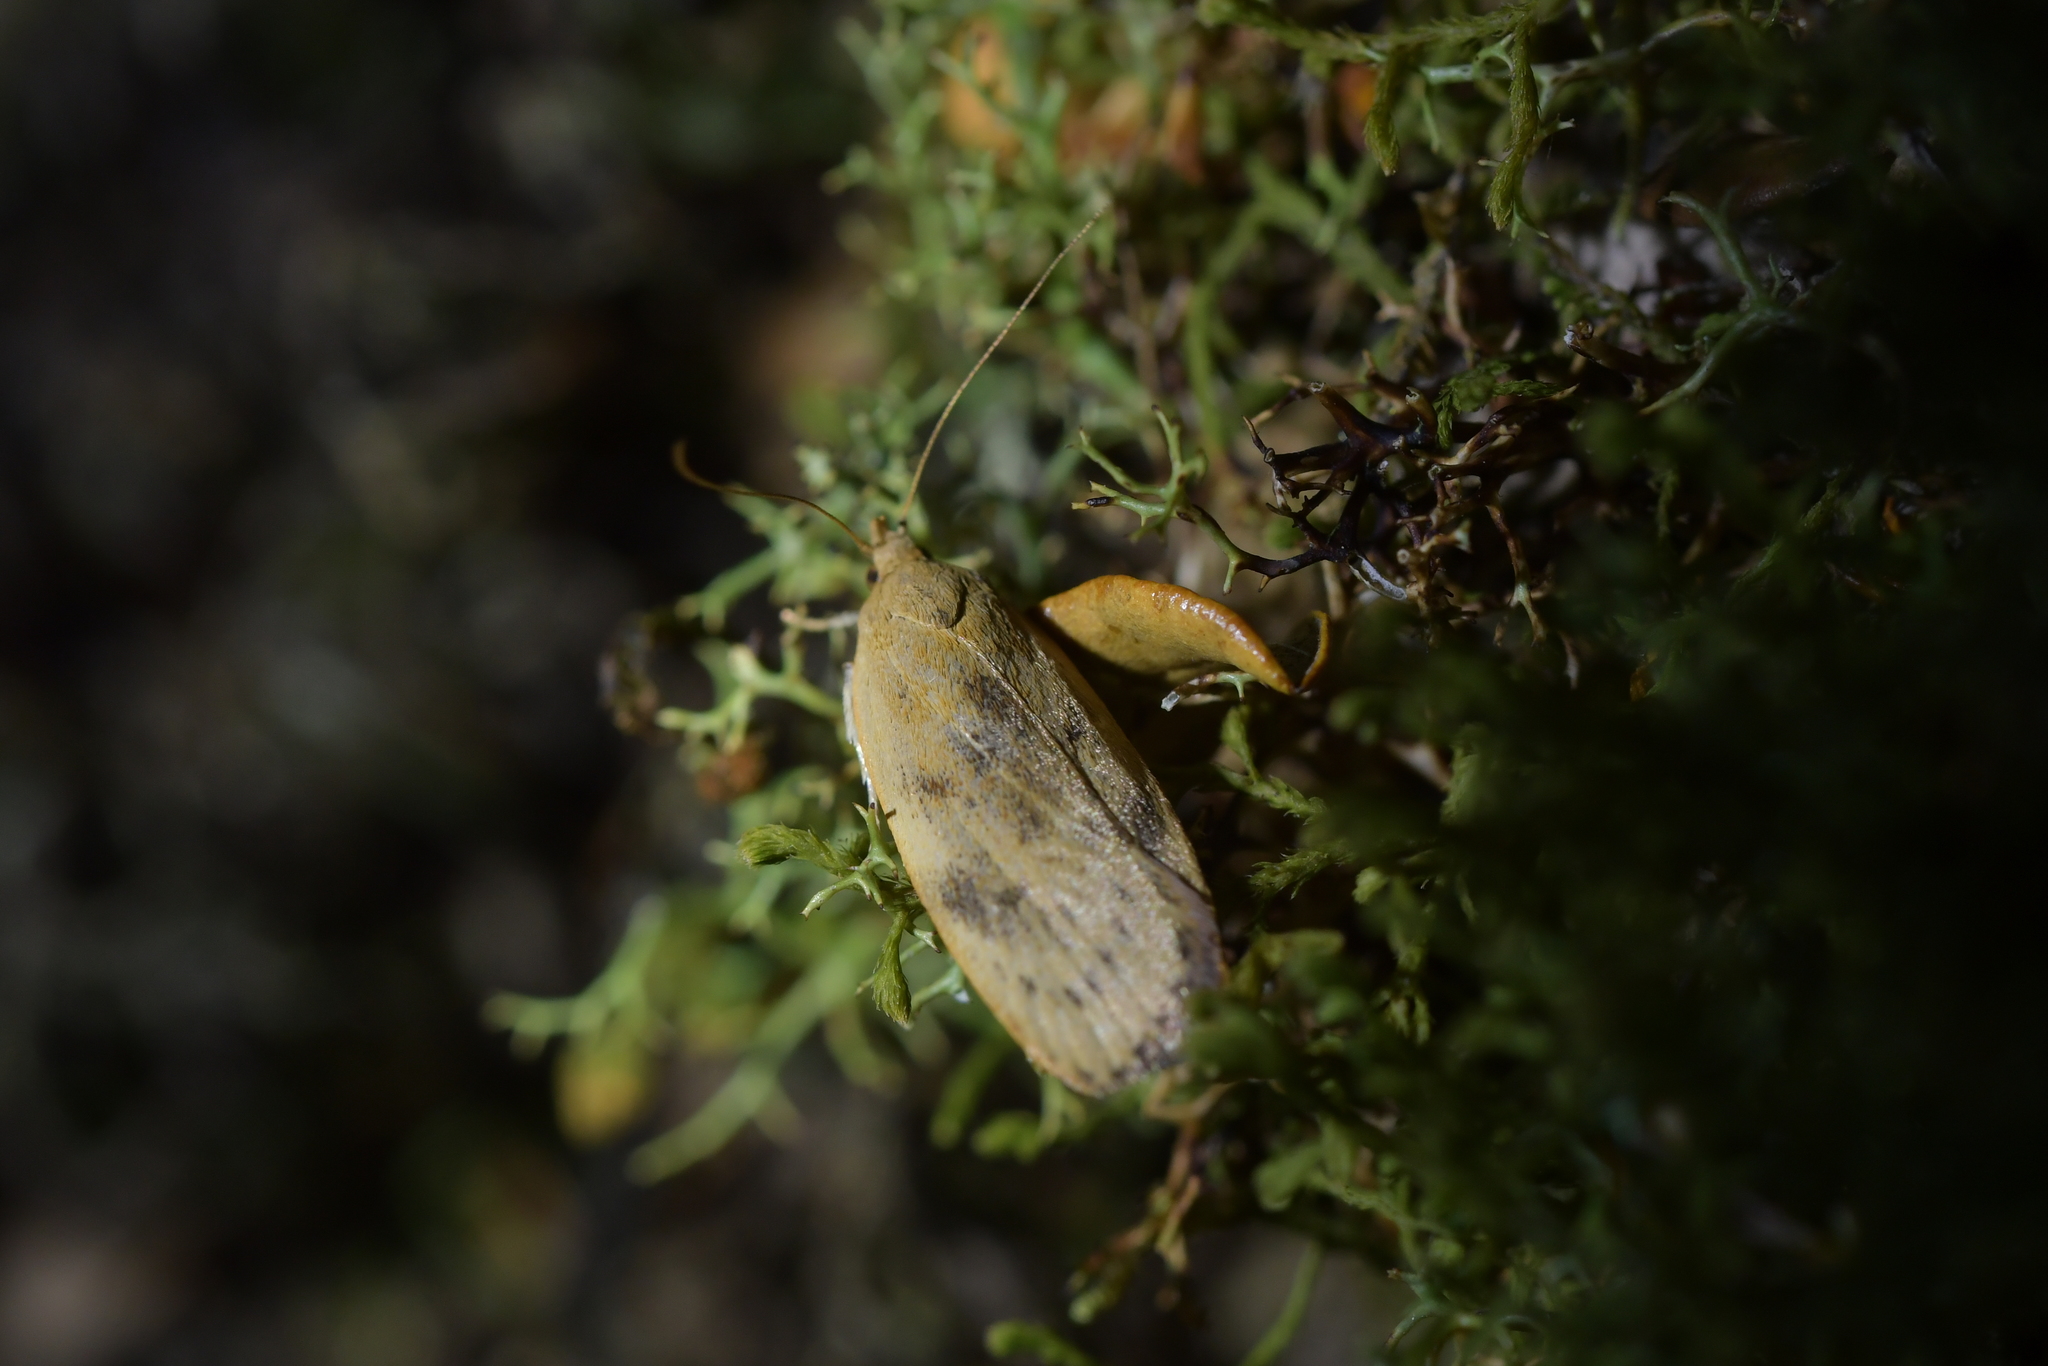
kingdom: Animalia
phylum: Arthropoda
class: Insecta
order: Lepidoptera
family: Depressariidae
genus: Phaeosaces
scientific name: Phaeosaces coarctatella
